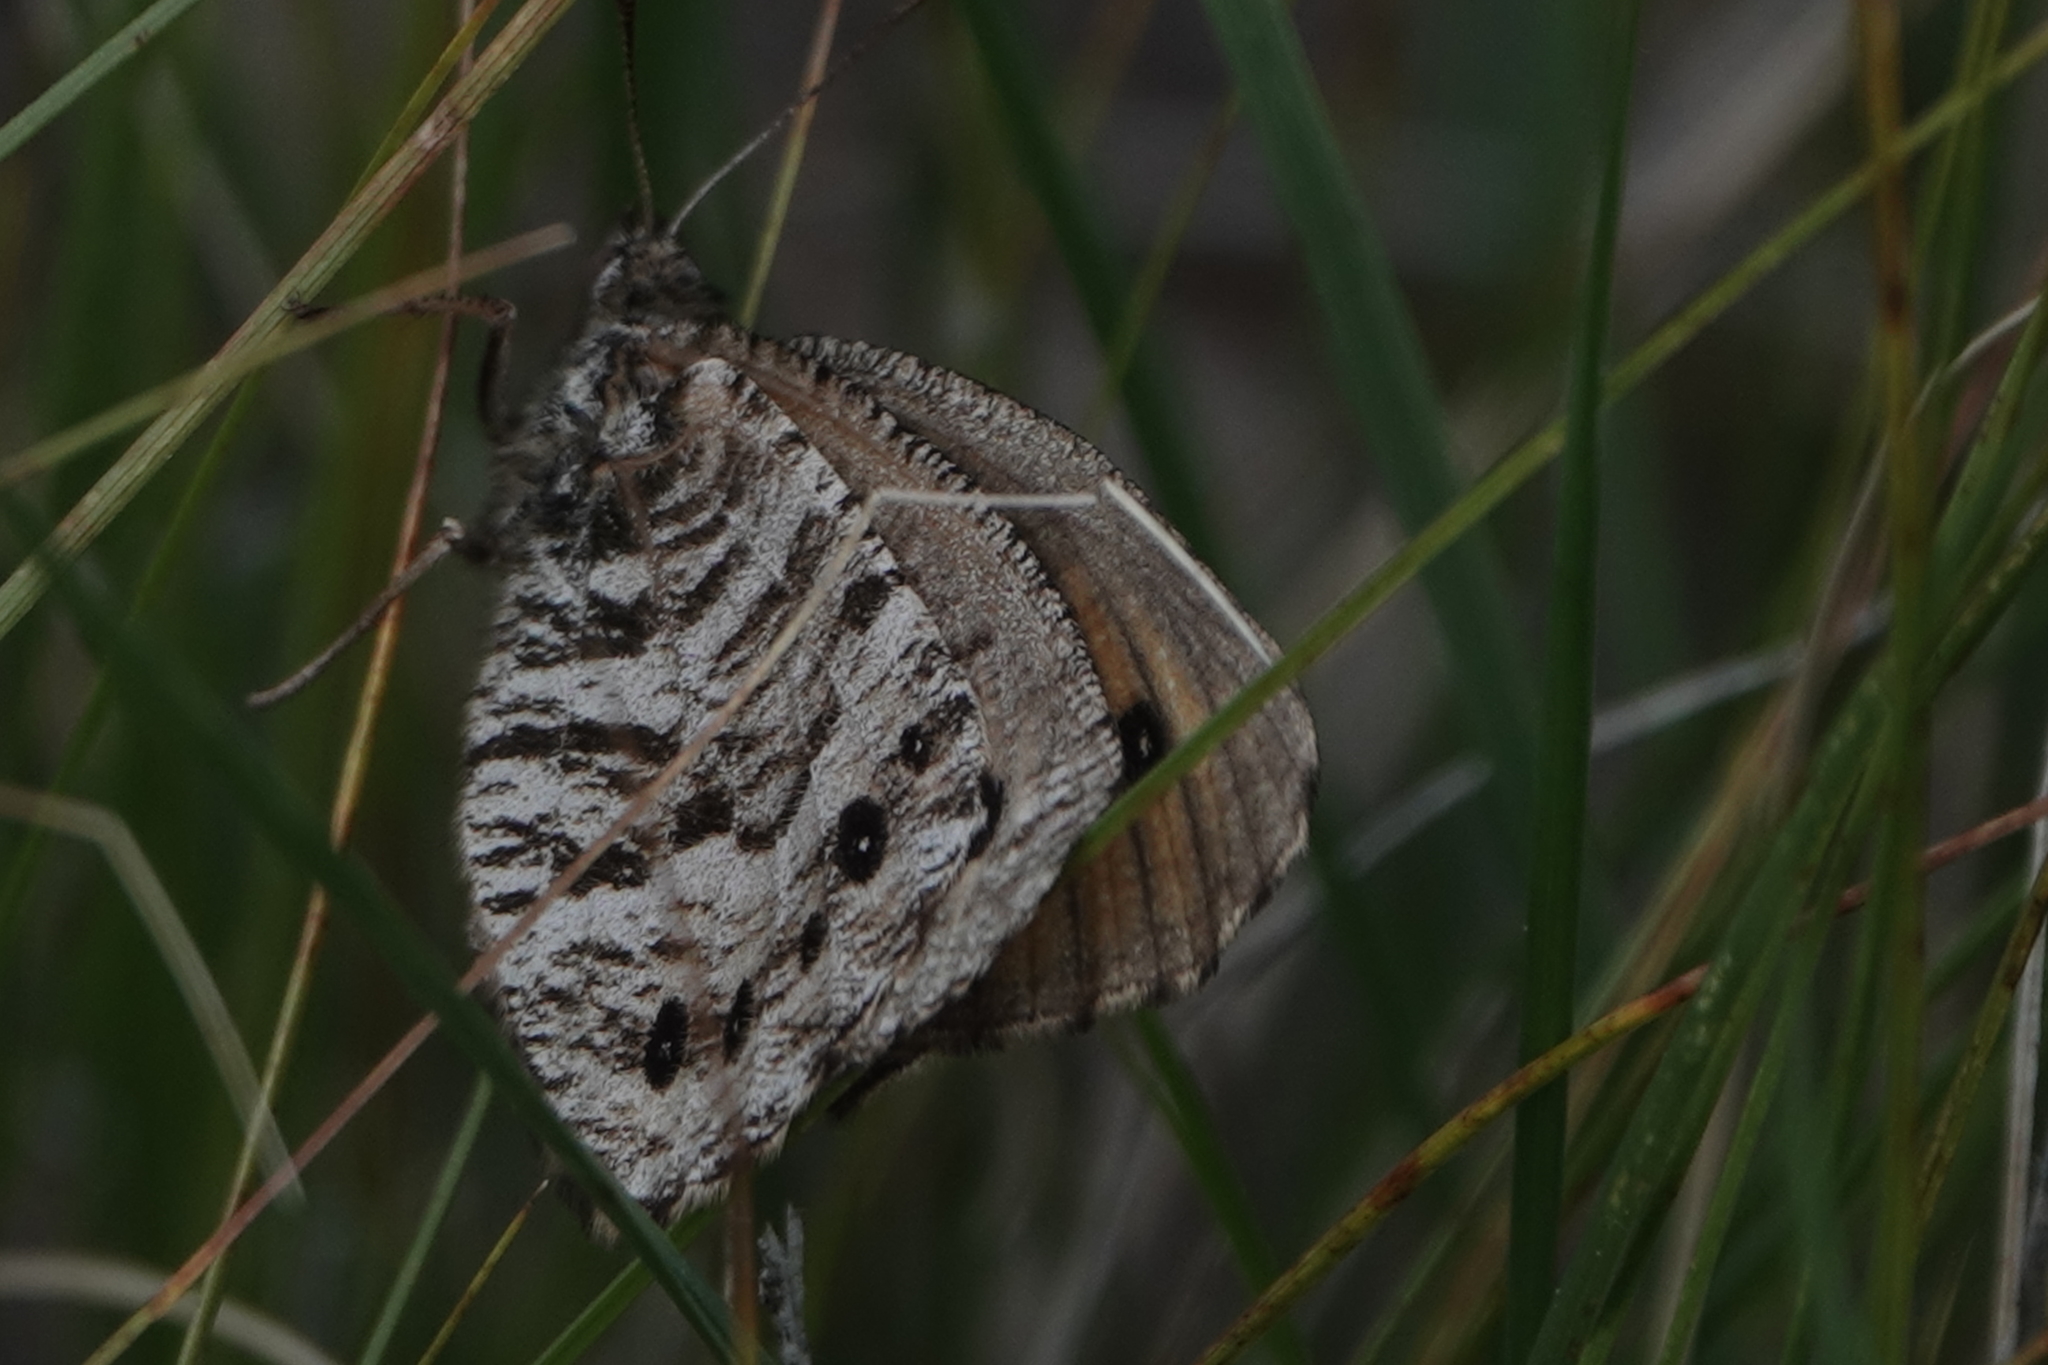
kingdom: Animalia
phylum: Arthropoda
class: Insecta
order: Lepidoptera
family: Nymphalidae
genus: Oeneis
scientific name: Oeneis uhleri
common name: Uhler's arctic
